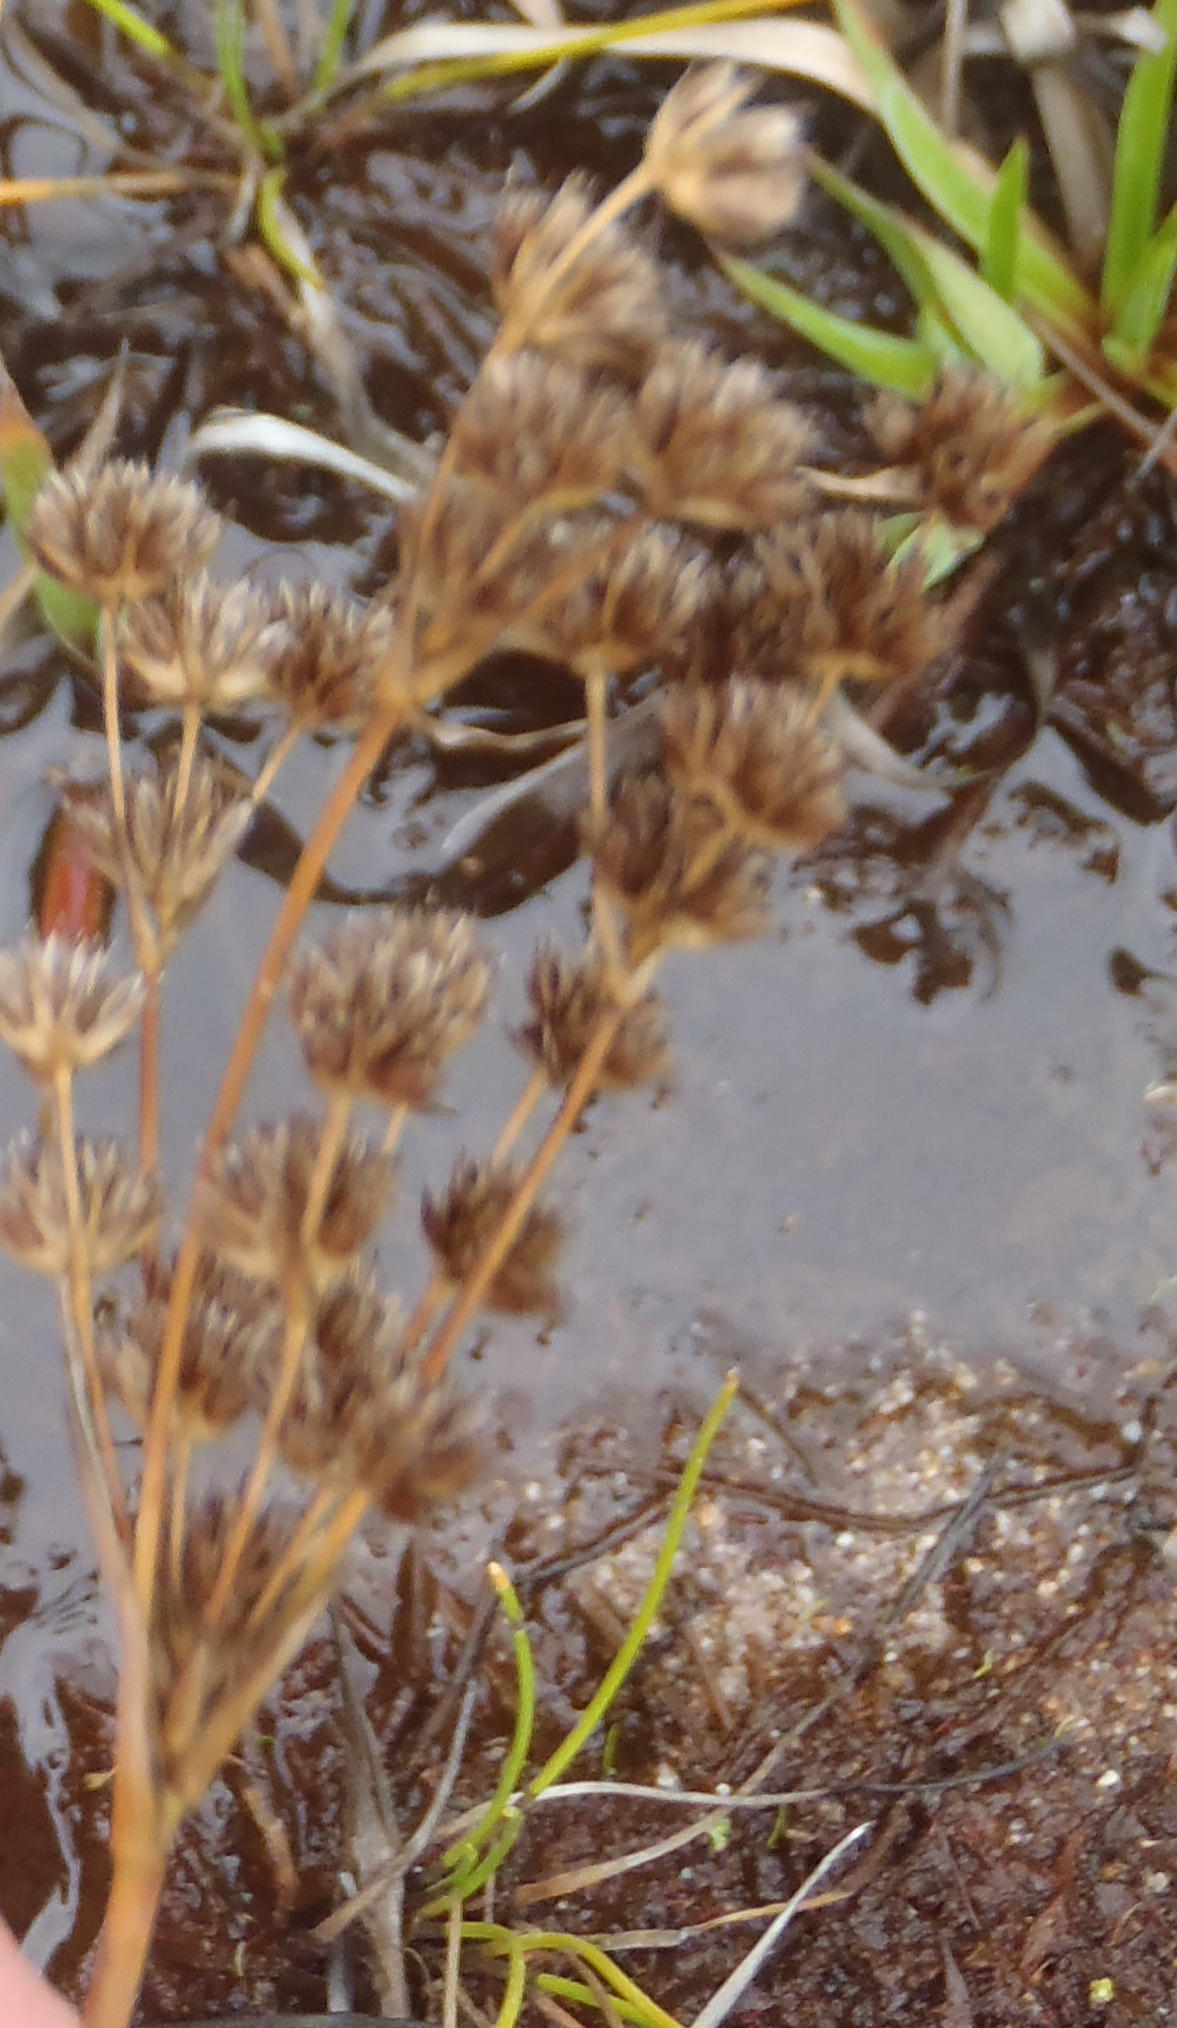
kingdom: Plantae
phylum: Tracheophyta
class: Liliopsida
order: Poales
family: Juncaceae
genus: Juncus
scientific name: Juncus lomatophyllus
